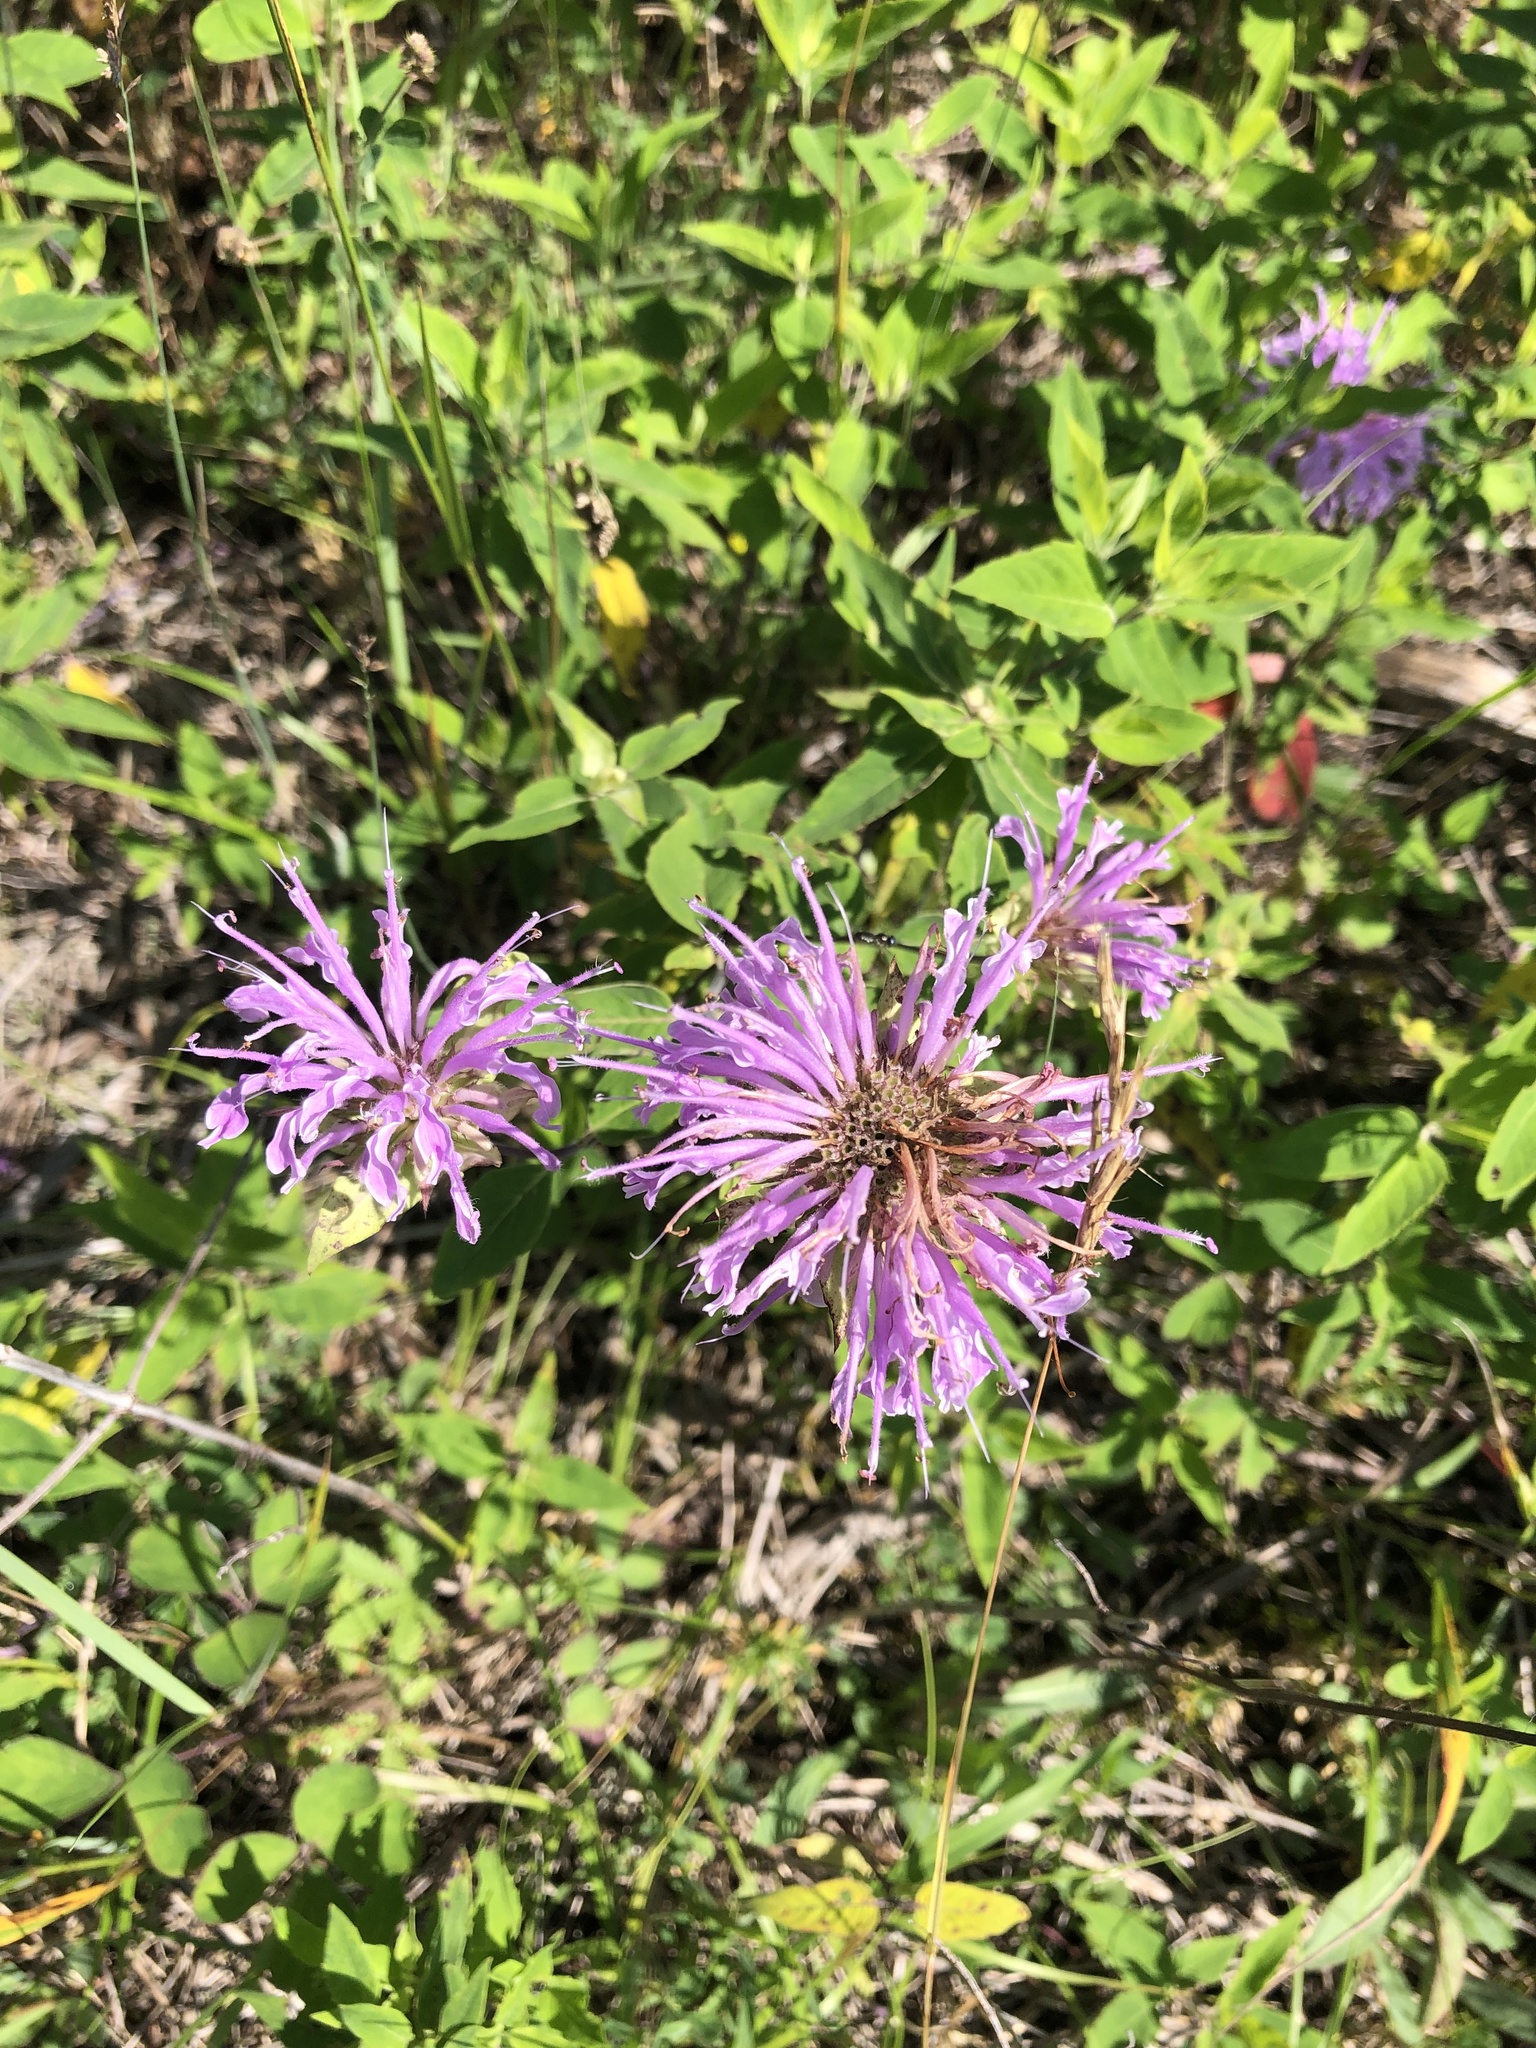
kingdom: Plantae
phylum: Tracheophyta
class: Magnoliopsida
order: Lamiales
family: Lamiaceae
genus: Monarda
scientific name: Monarda fistulosa
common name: Purple beebalm
